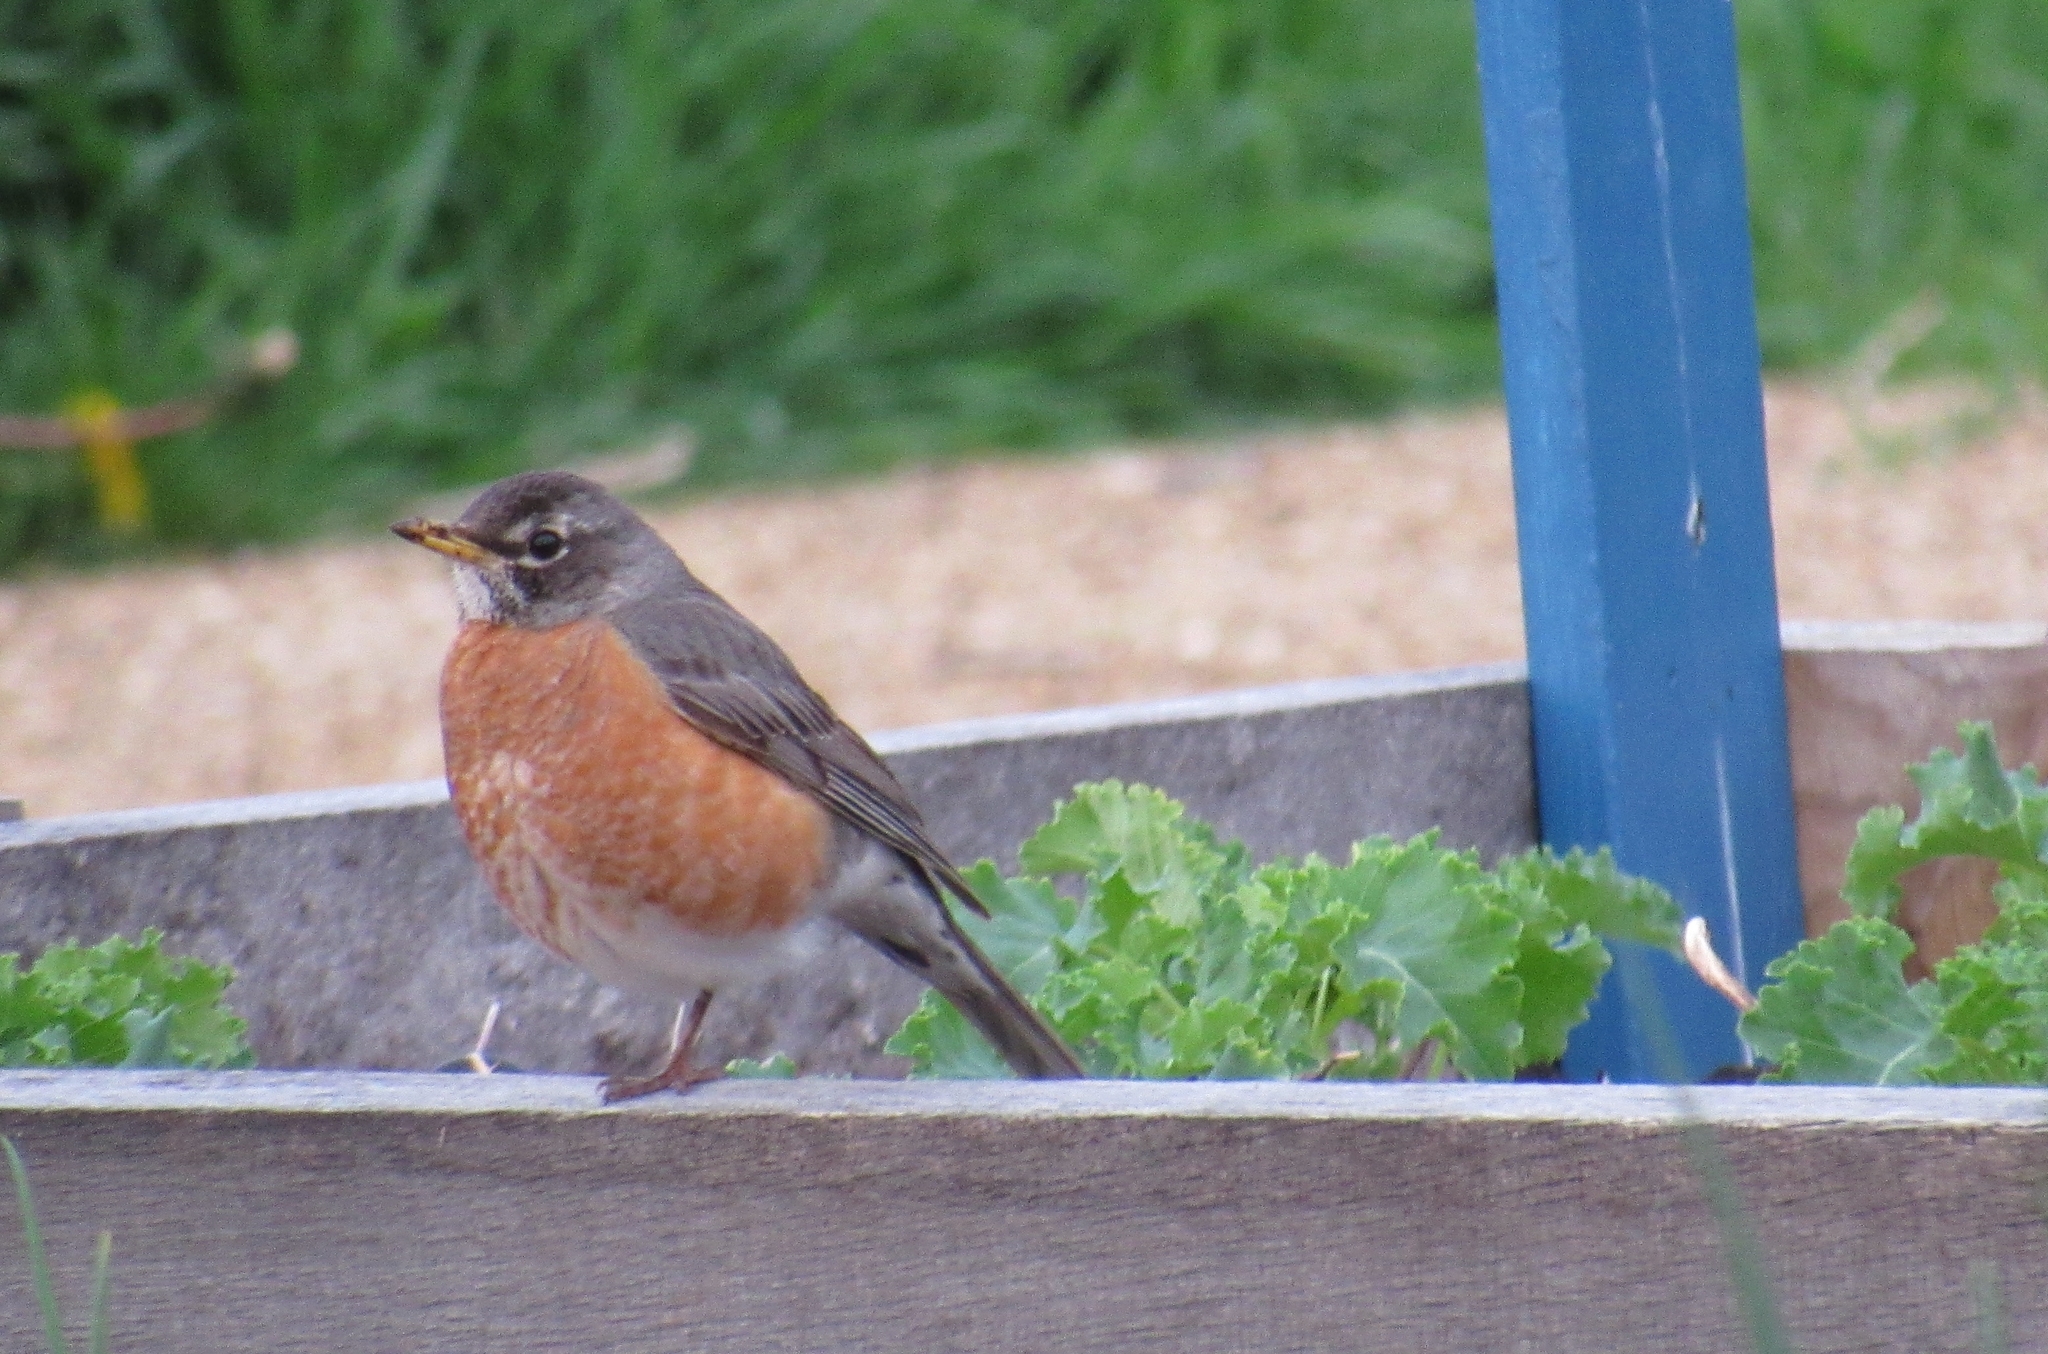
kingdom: Animalia
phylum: Chordata
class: Aves
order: Passeriformes
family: Turdidae
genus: Turdus
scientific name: Turdus migratorius
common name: American robin
